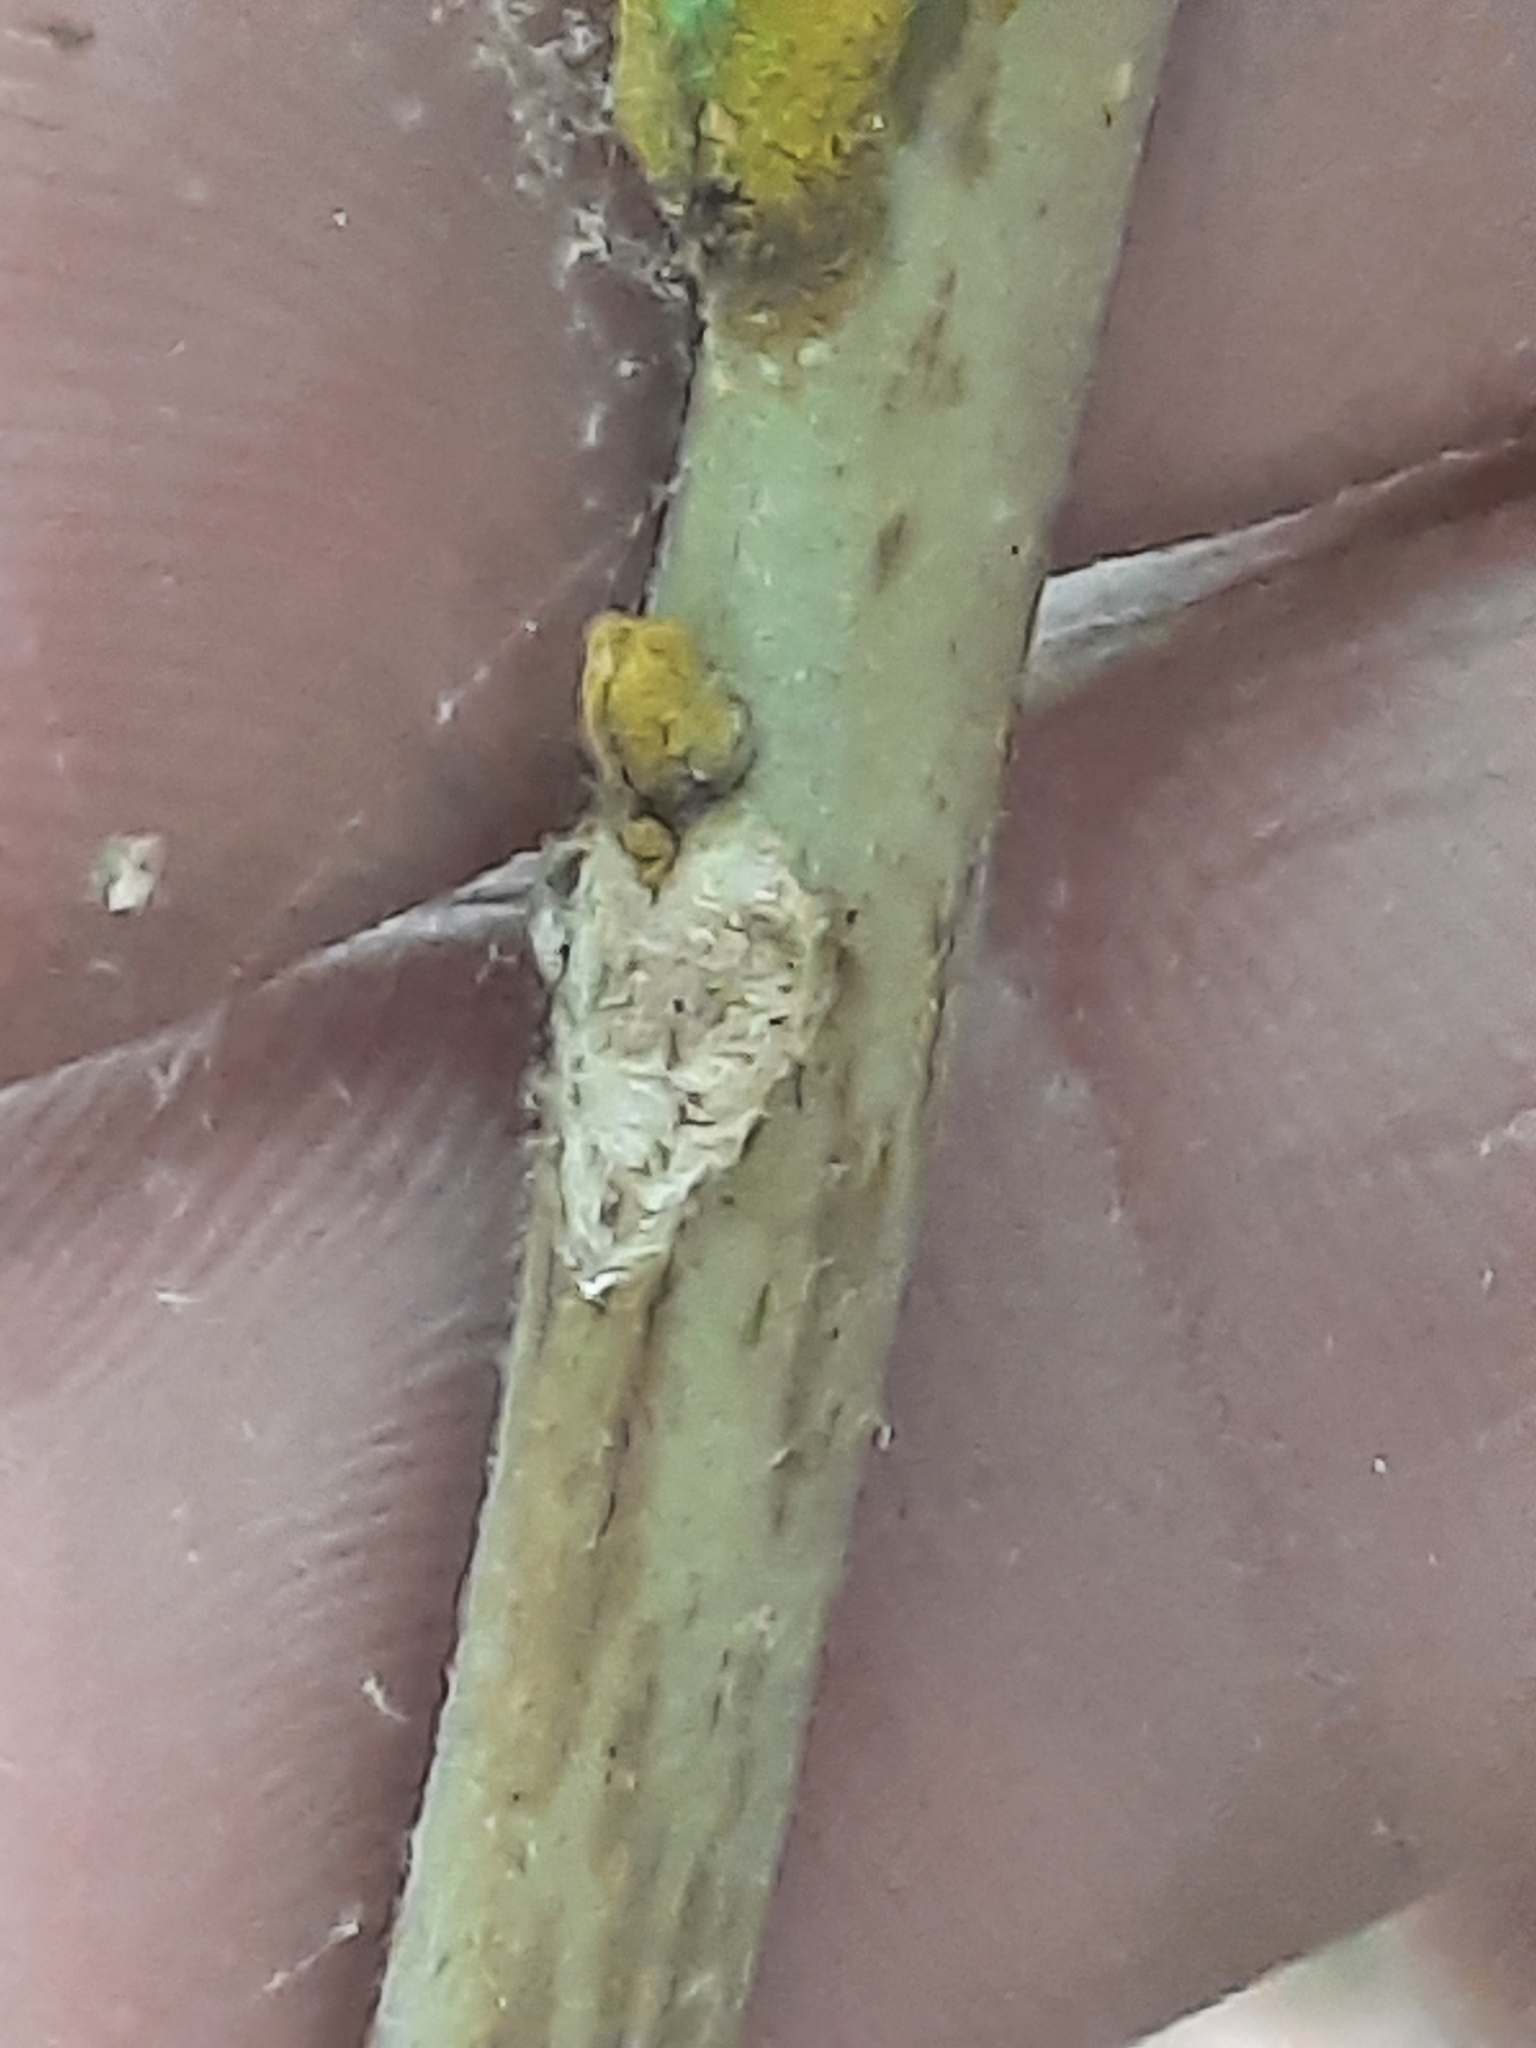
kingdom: Plantae
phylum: Tracheophyta
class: Magnoliopsida
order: Fagales
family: Juglandaceae
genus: Carya
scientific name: Carya cordiformis
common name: Bitternut hickory
